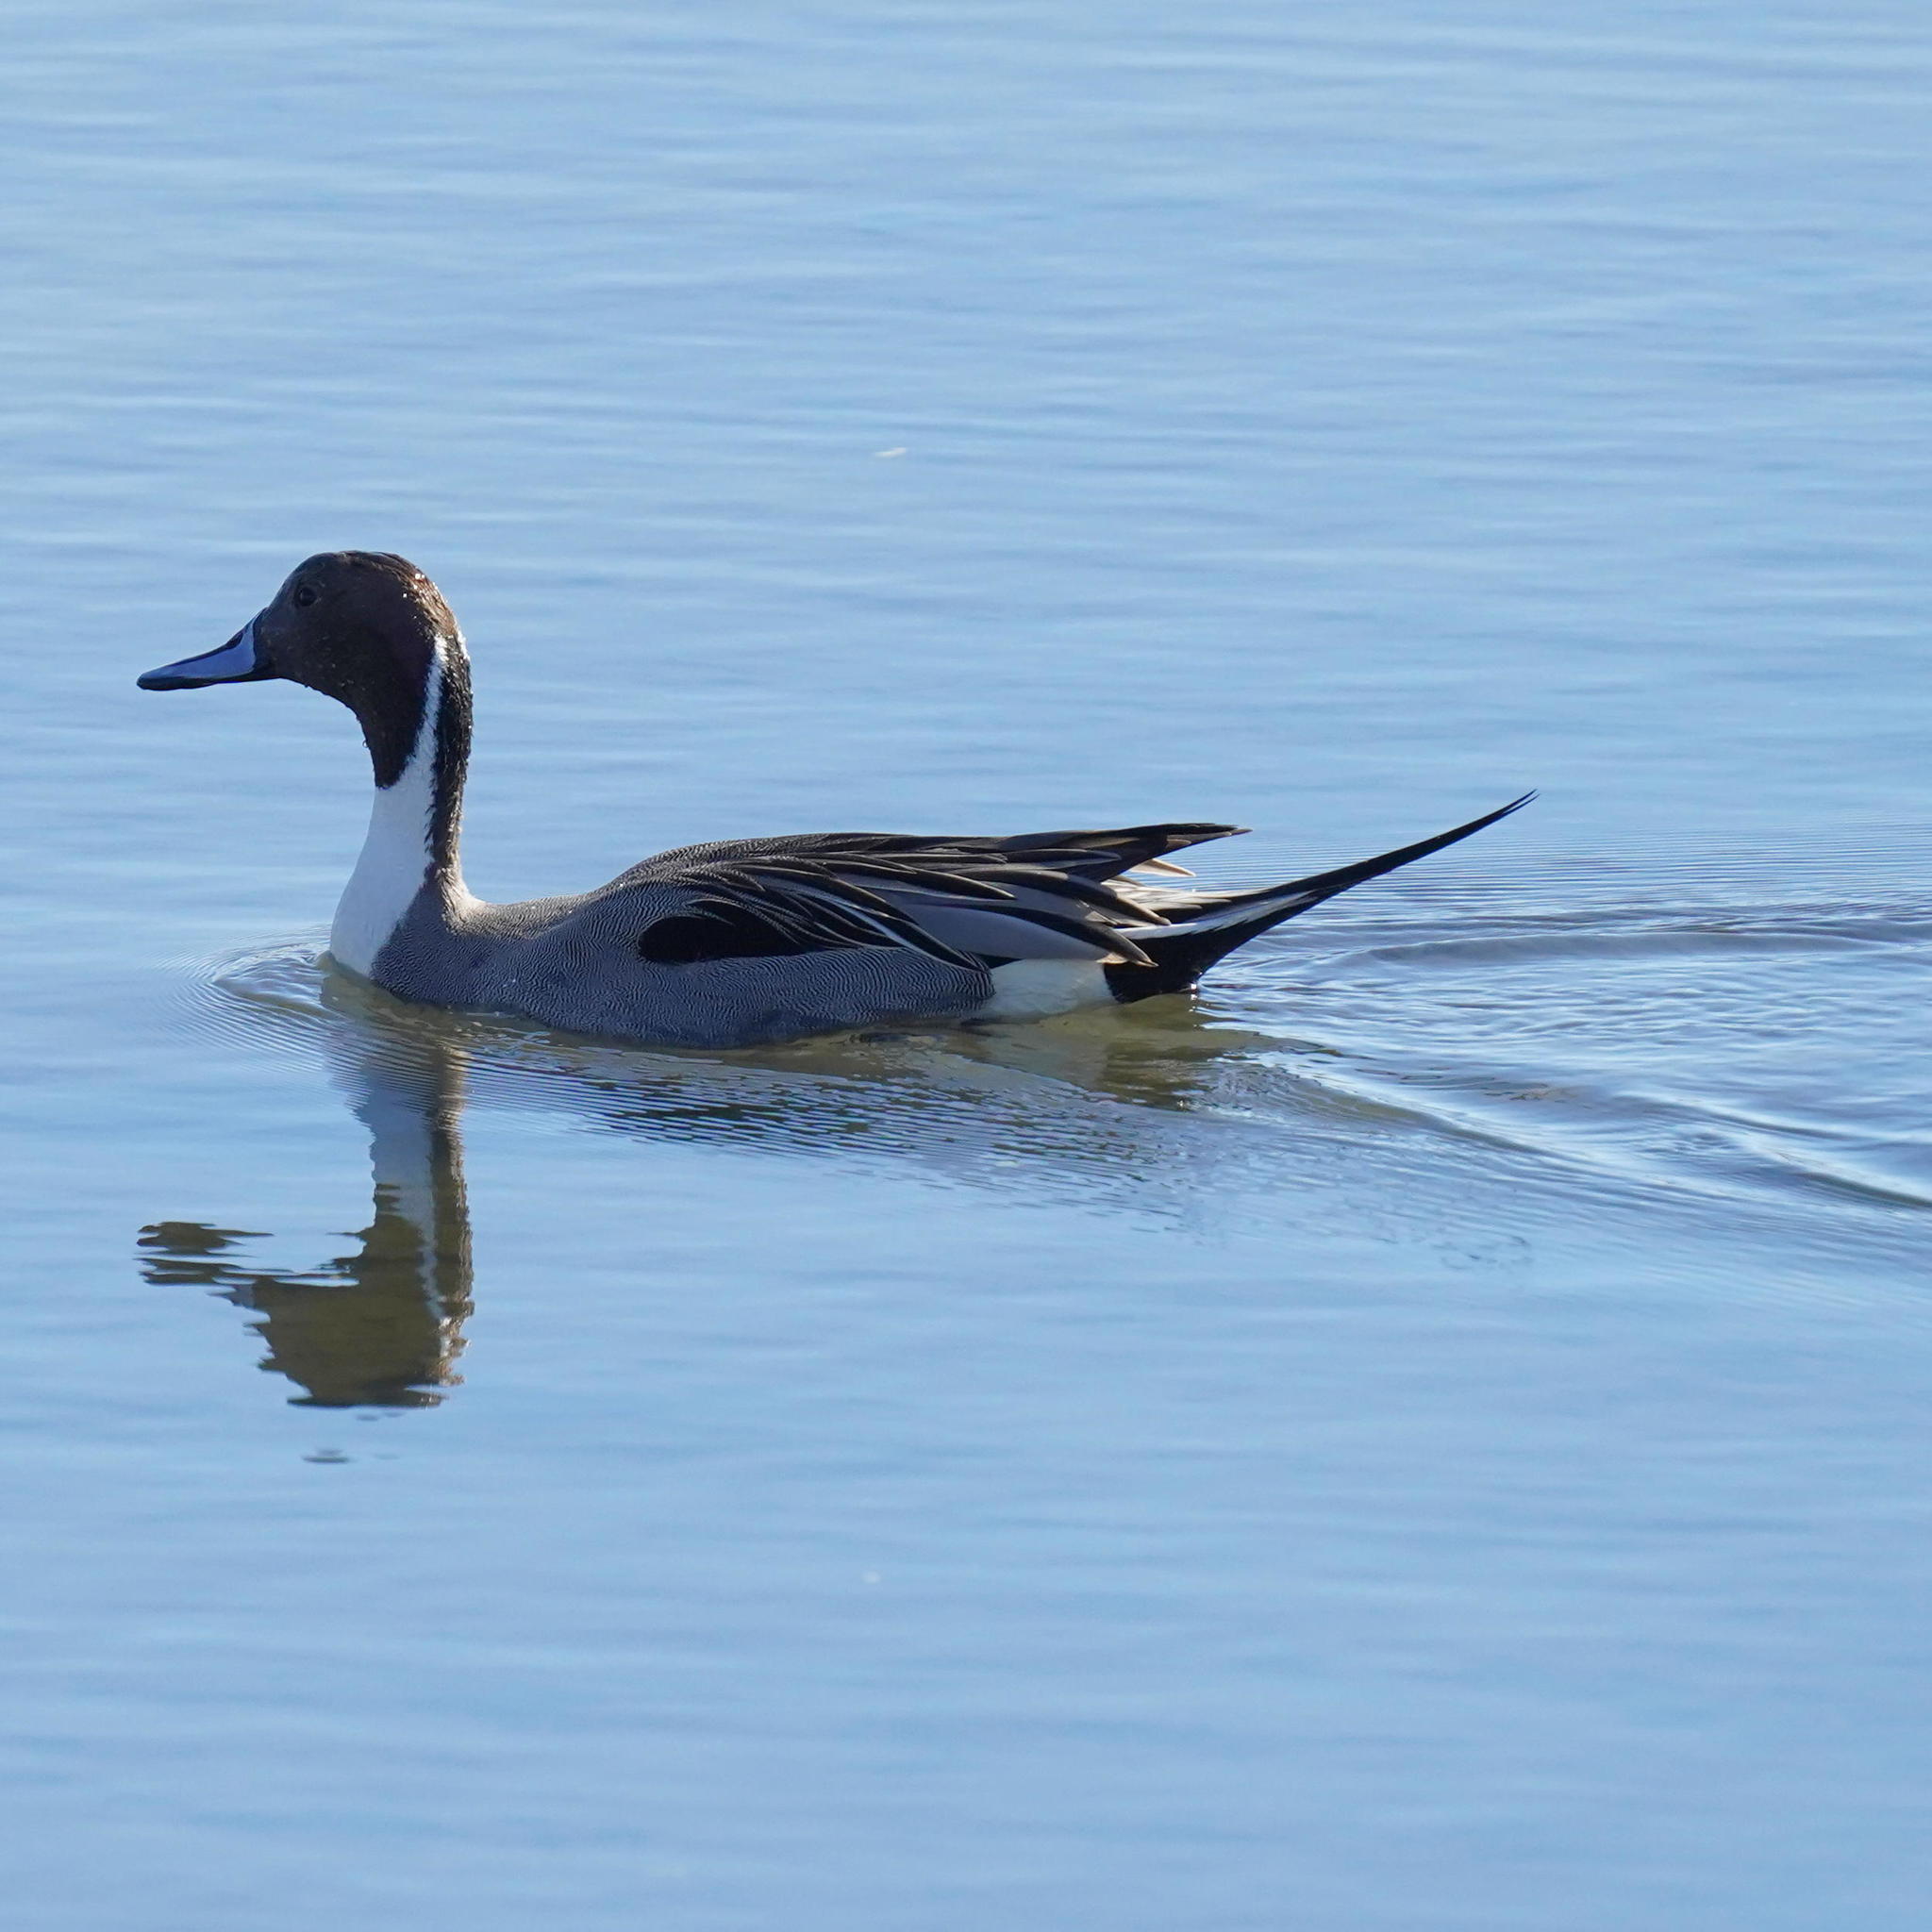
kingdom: Animalia
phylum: Chordata
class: Aves
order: Anseriformes
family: Anatidae
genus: Anas
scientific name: Anas acuta
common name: Northern pintail
